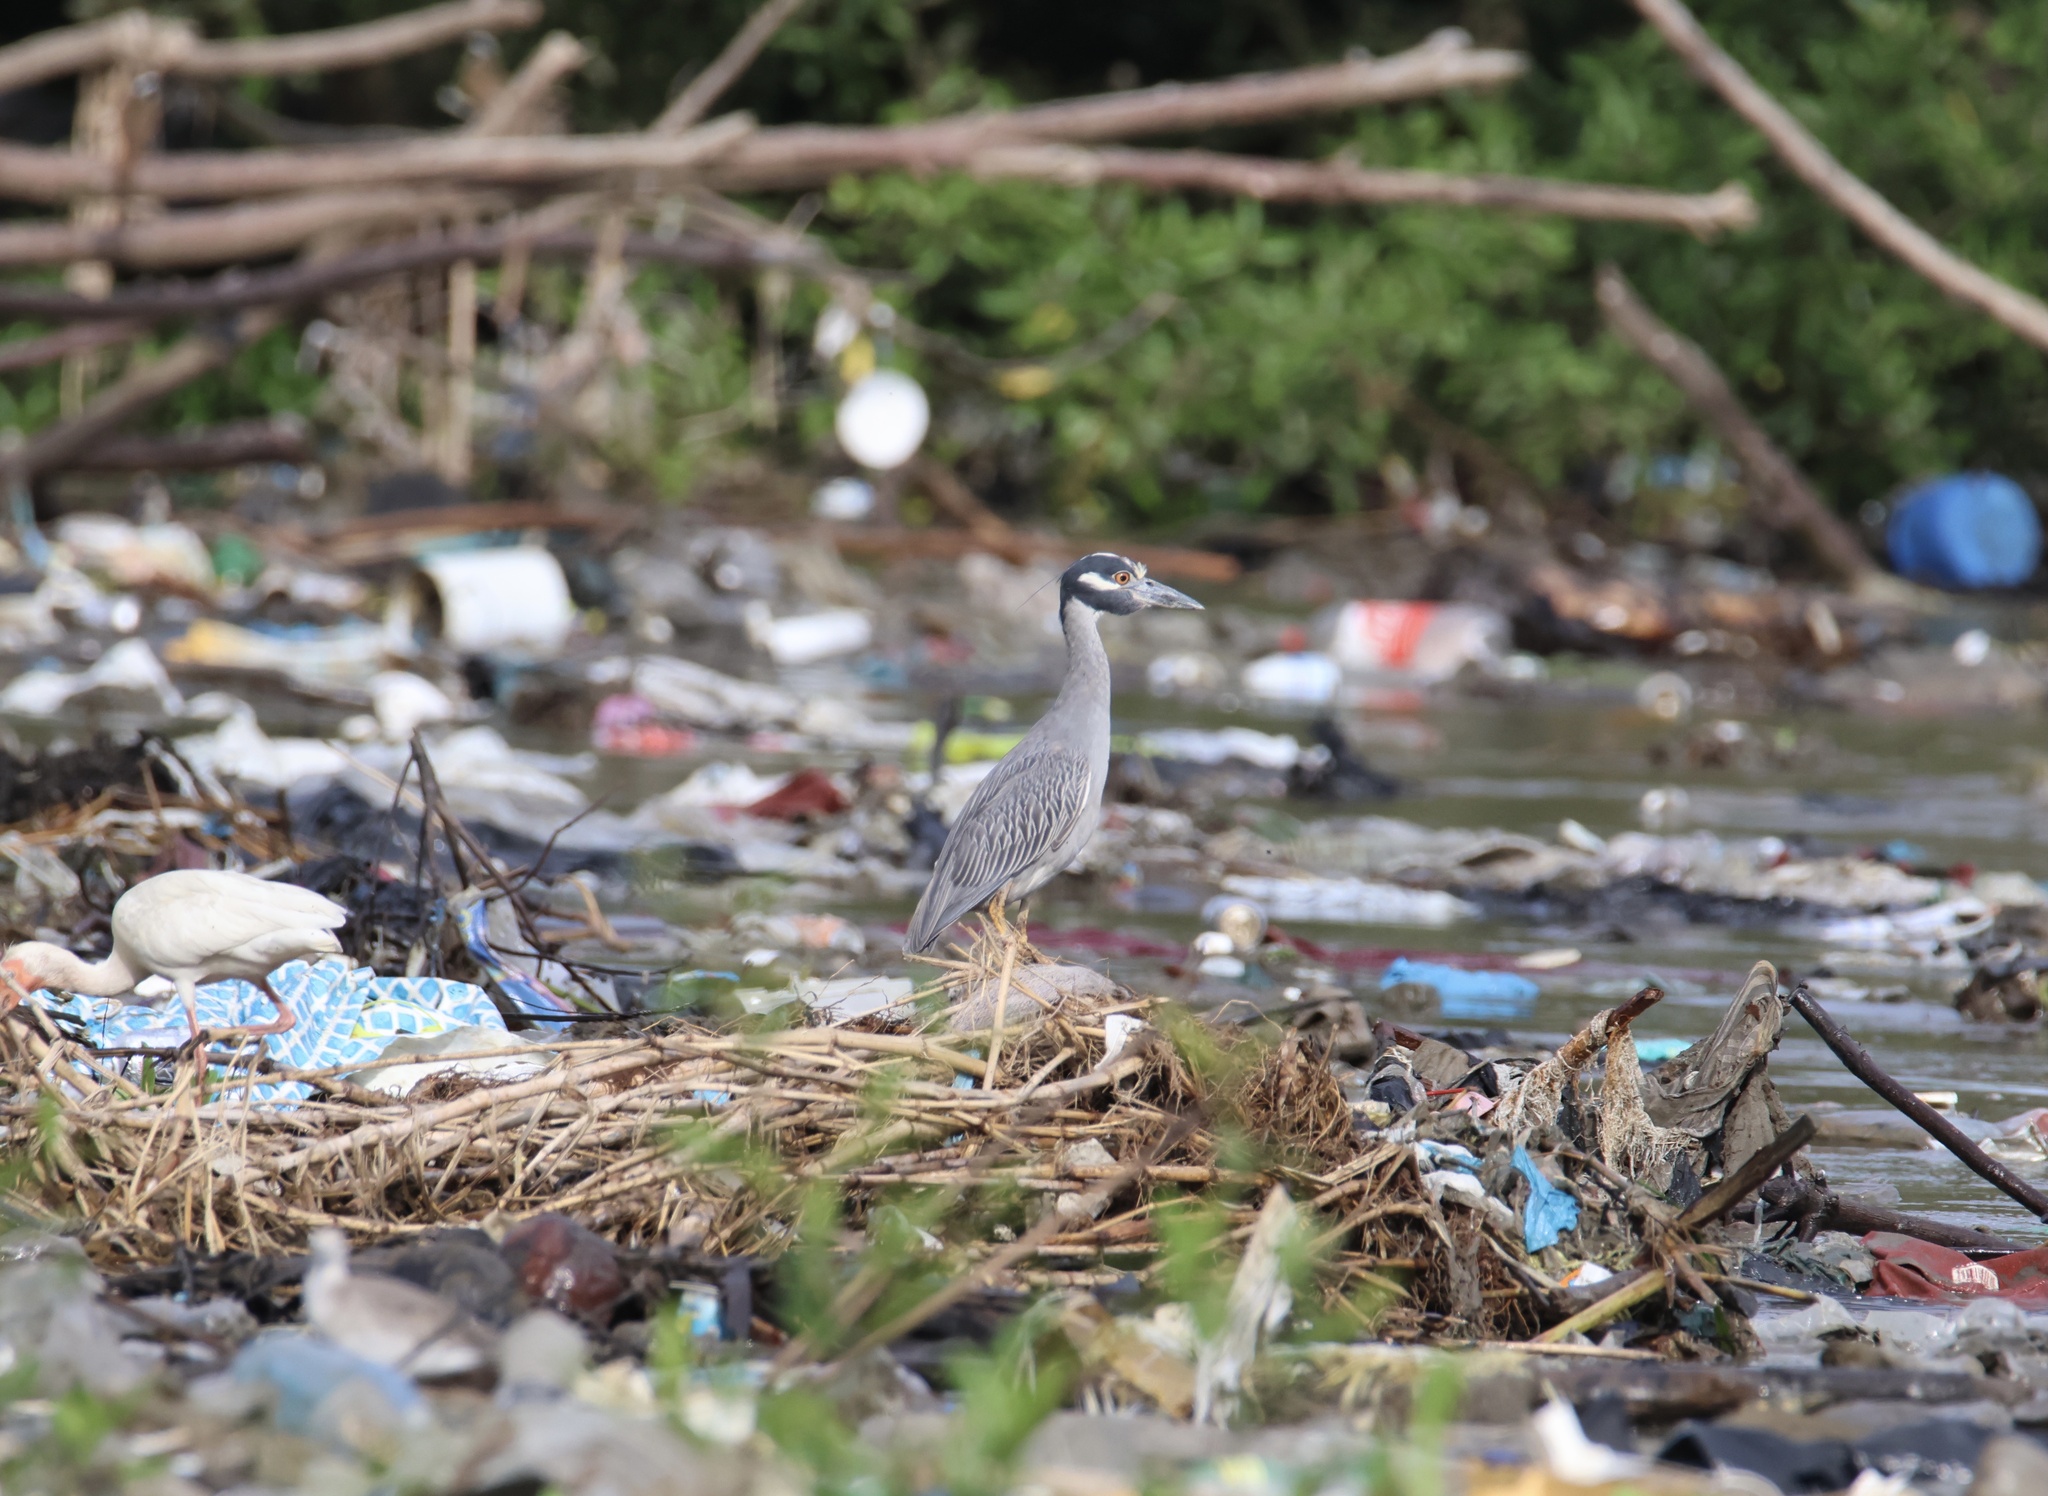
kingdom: Animalia
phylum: Chordata
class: Aves
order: Pelecaniformes
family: Ardeidae
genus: Nyctanassa
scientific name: Nyctanassa violacea
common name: Yellow-crowned night heron
